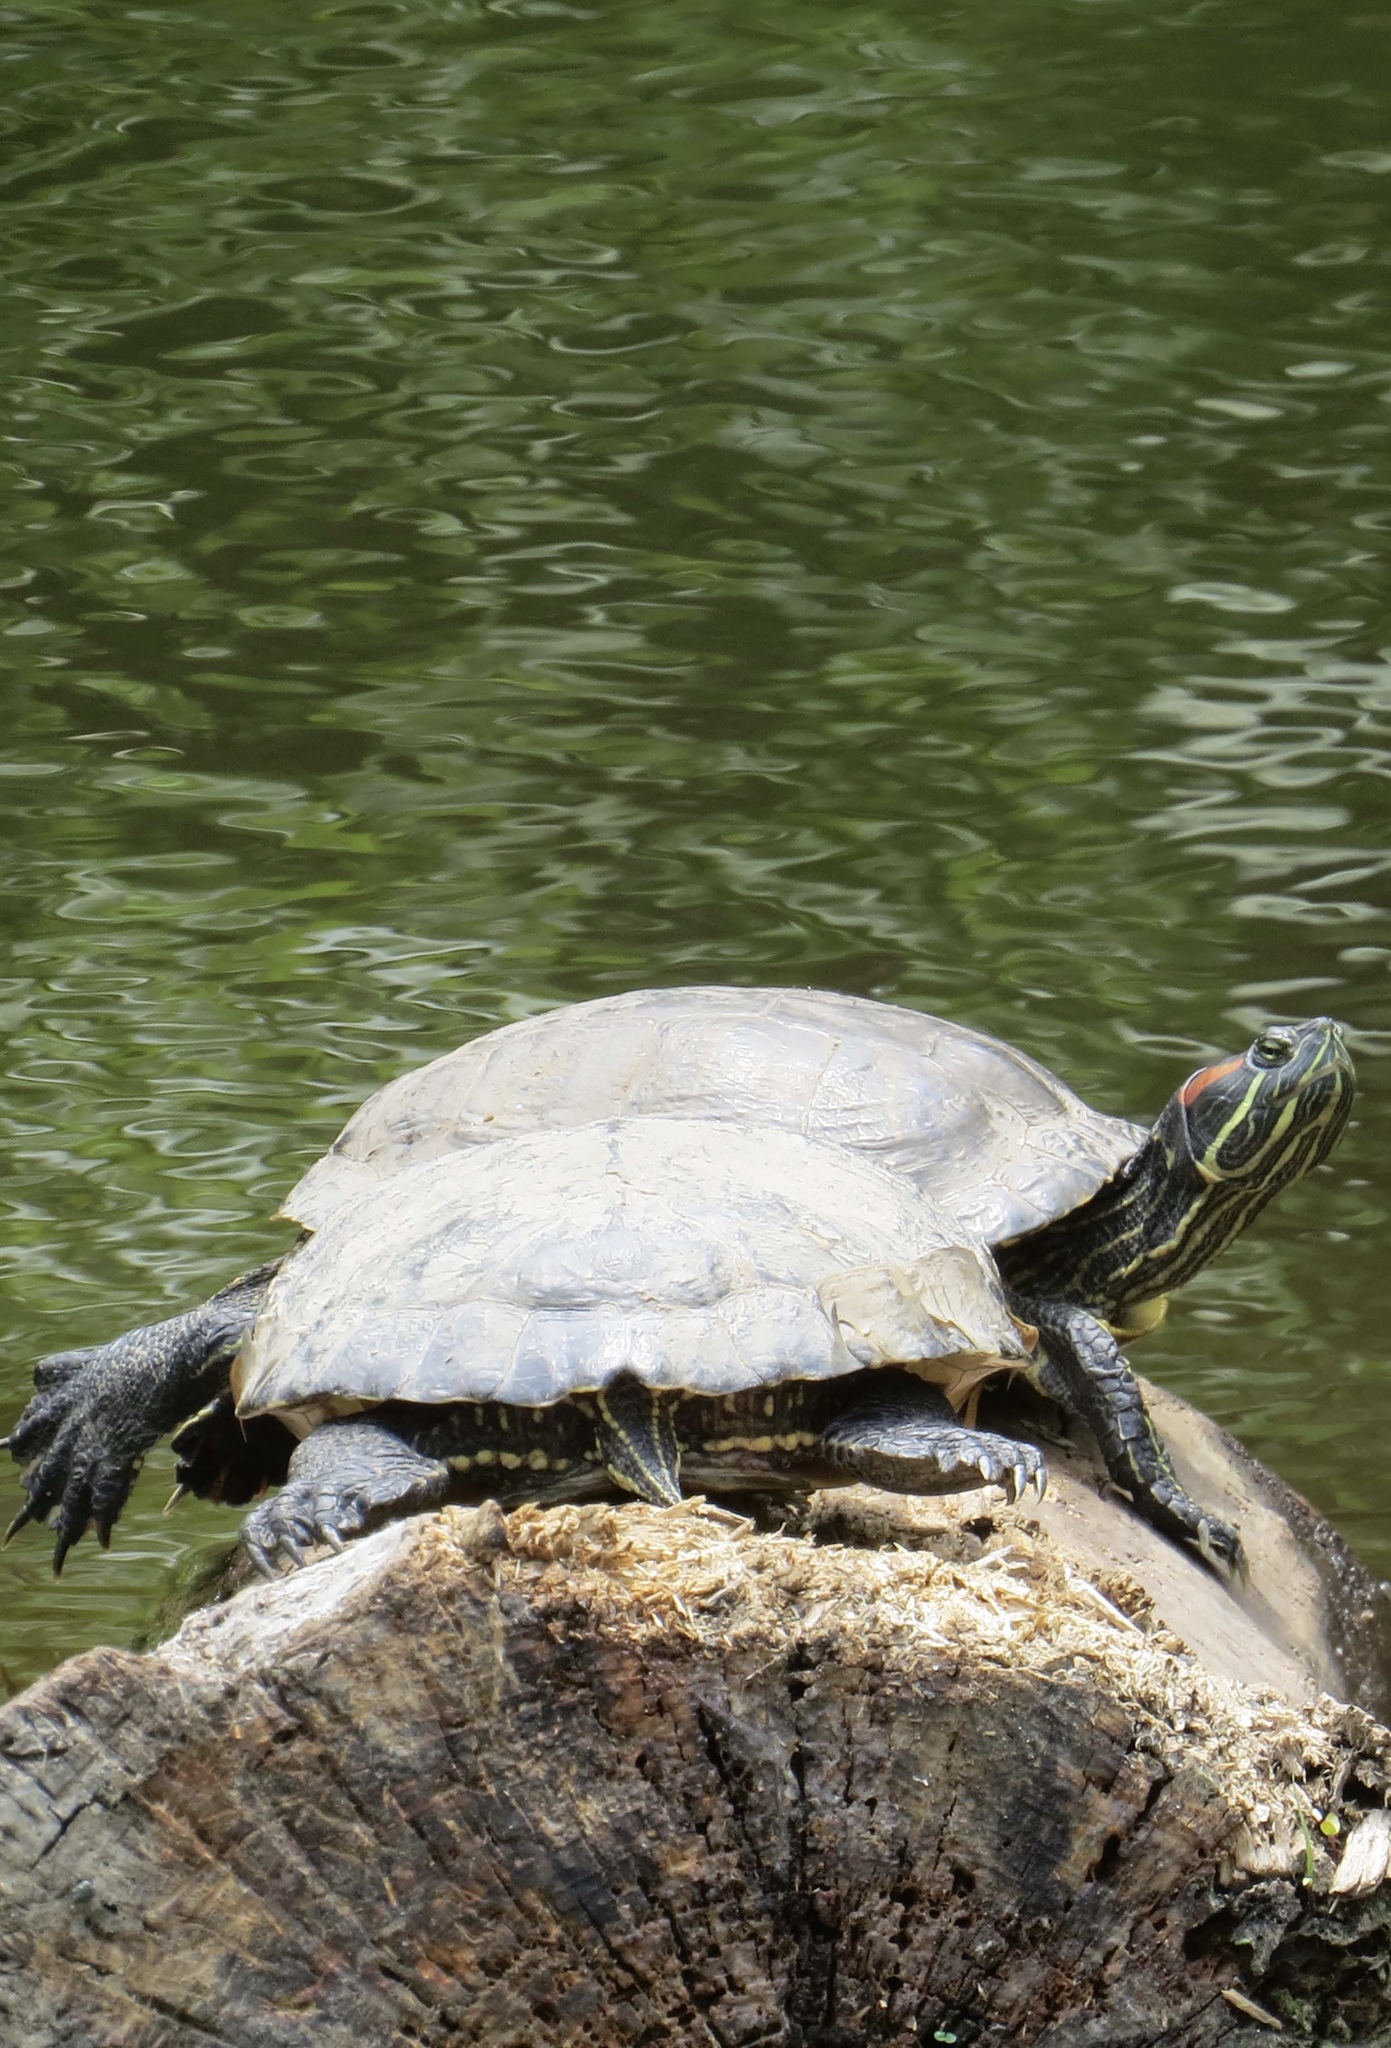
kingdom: Animalia
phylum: Chordata
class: Testudines
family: Emydidae
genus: Trachemys
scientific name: Trachemys scripta
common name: Slider
